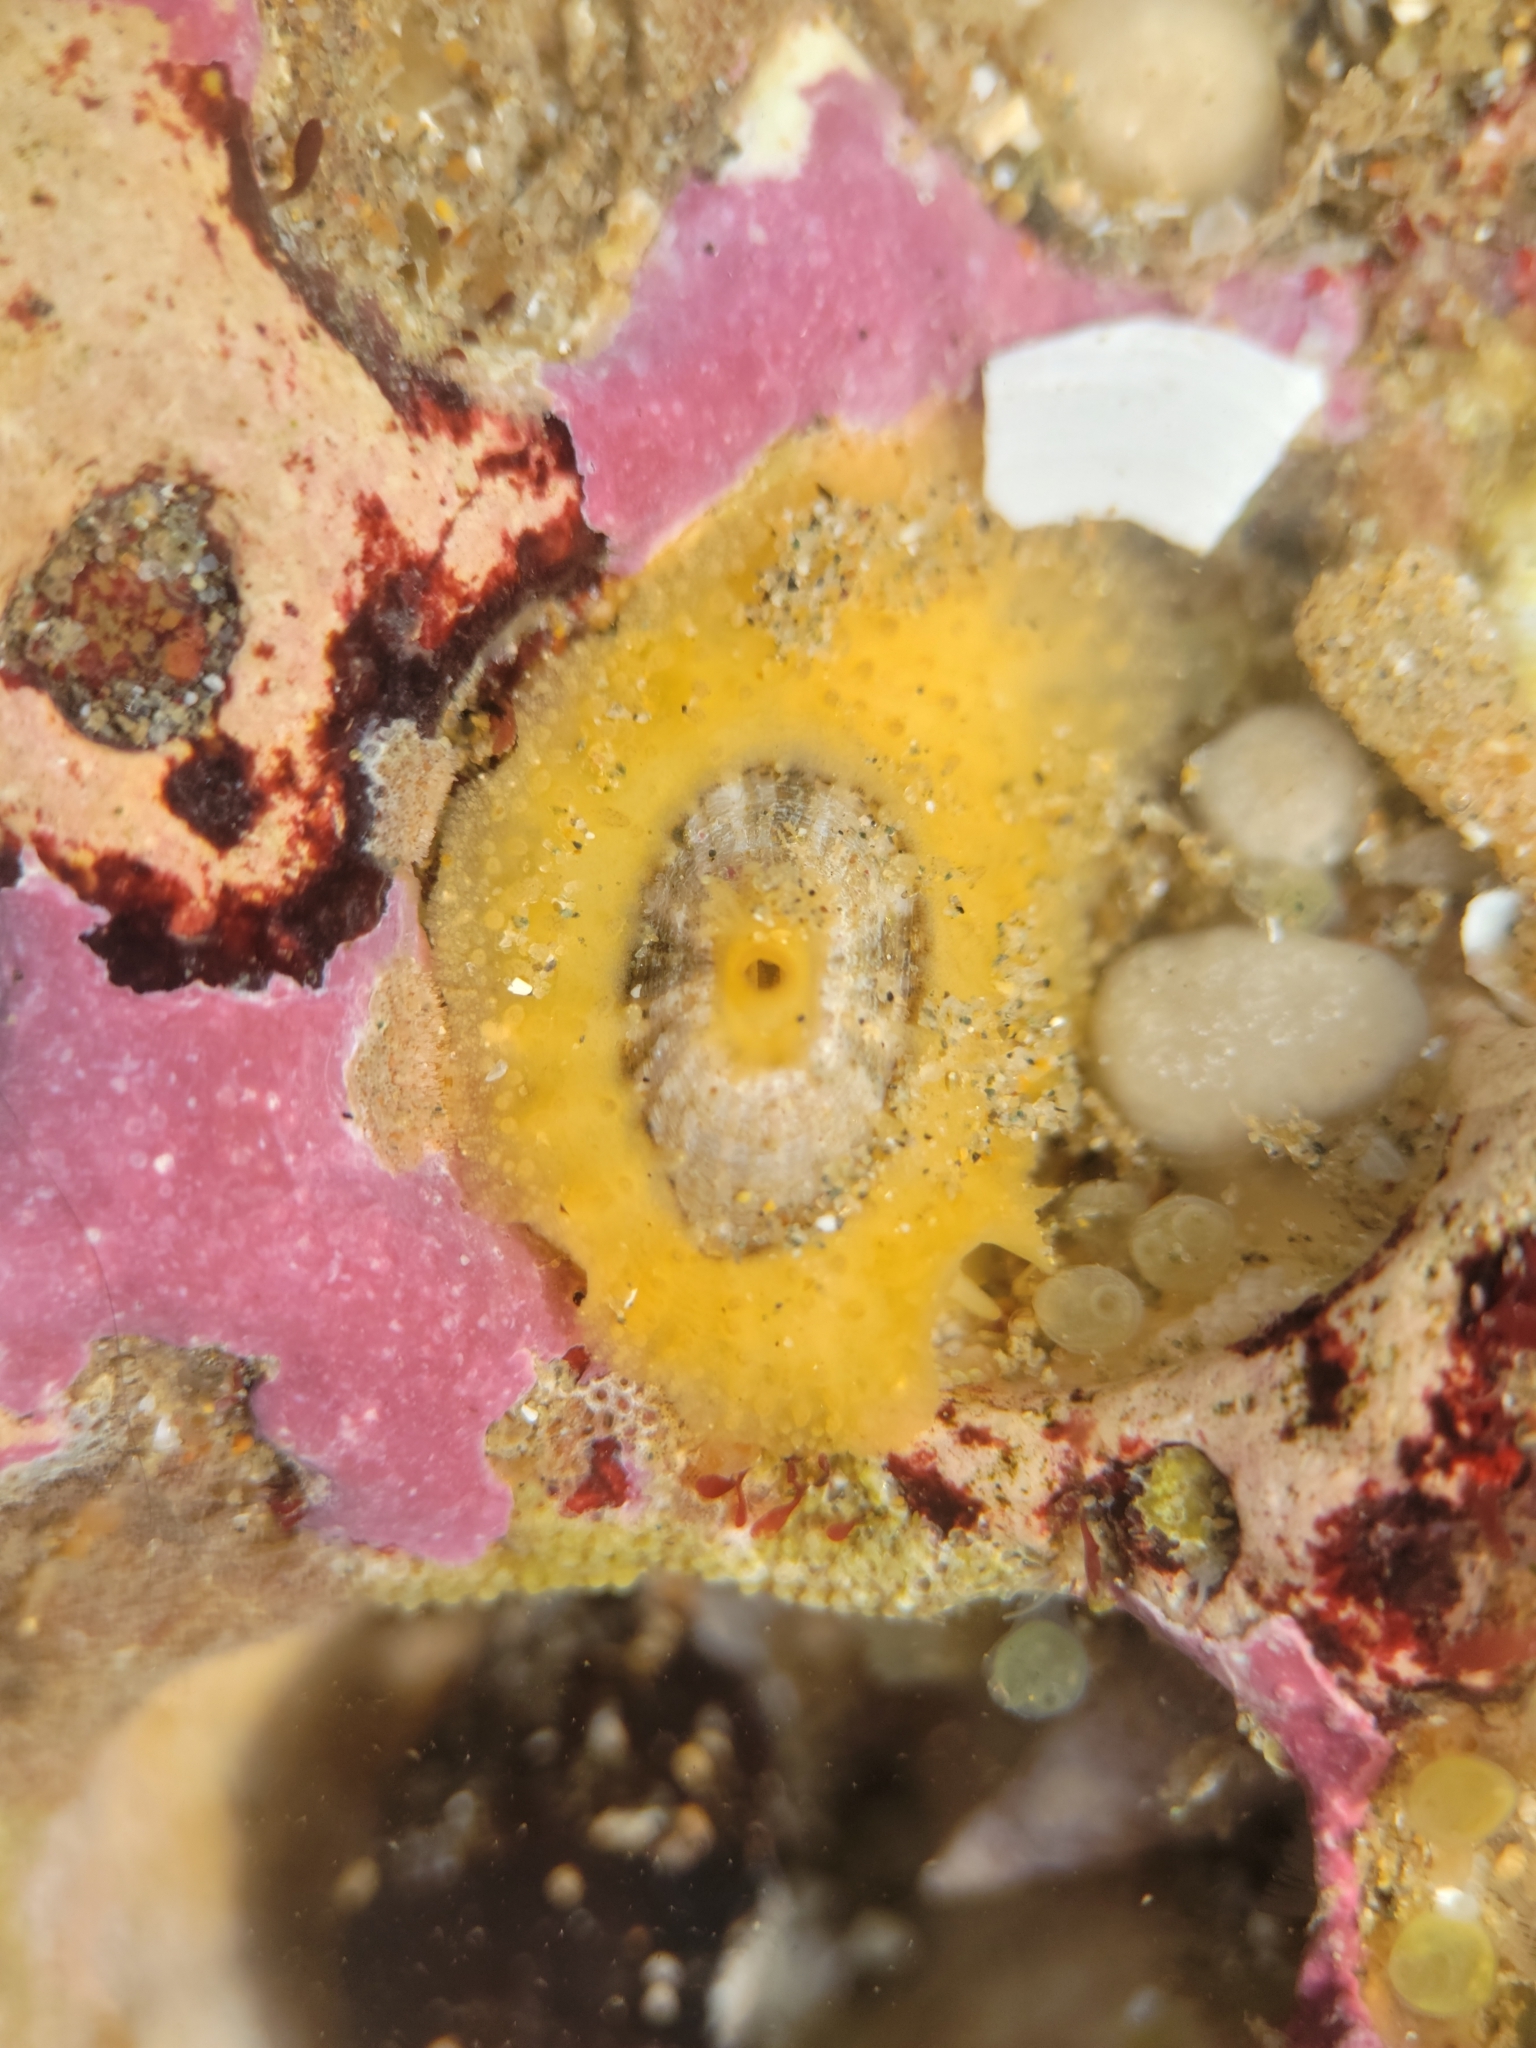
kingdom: Animalia
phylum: Mollusca
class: Gastropoda
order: Lepetellida
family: Fissurellidae
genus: Fissurellidea
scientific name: Fissurellidea bimaculata
